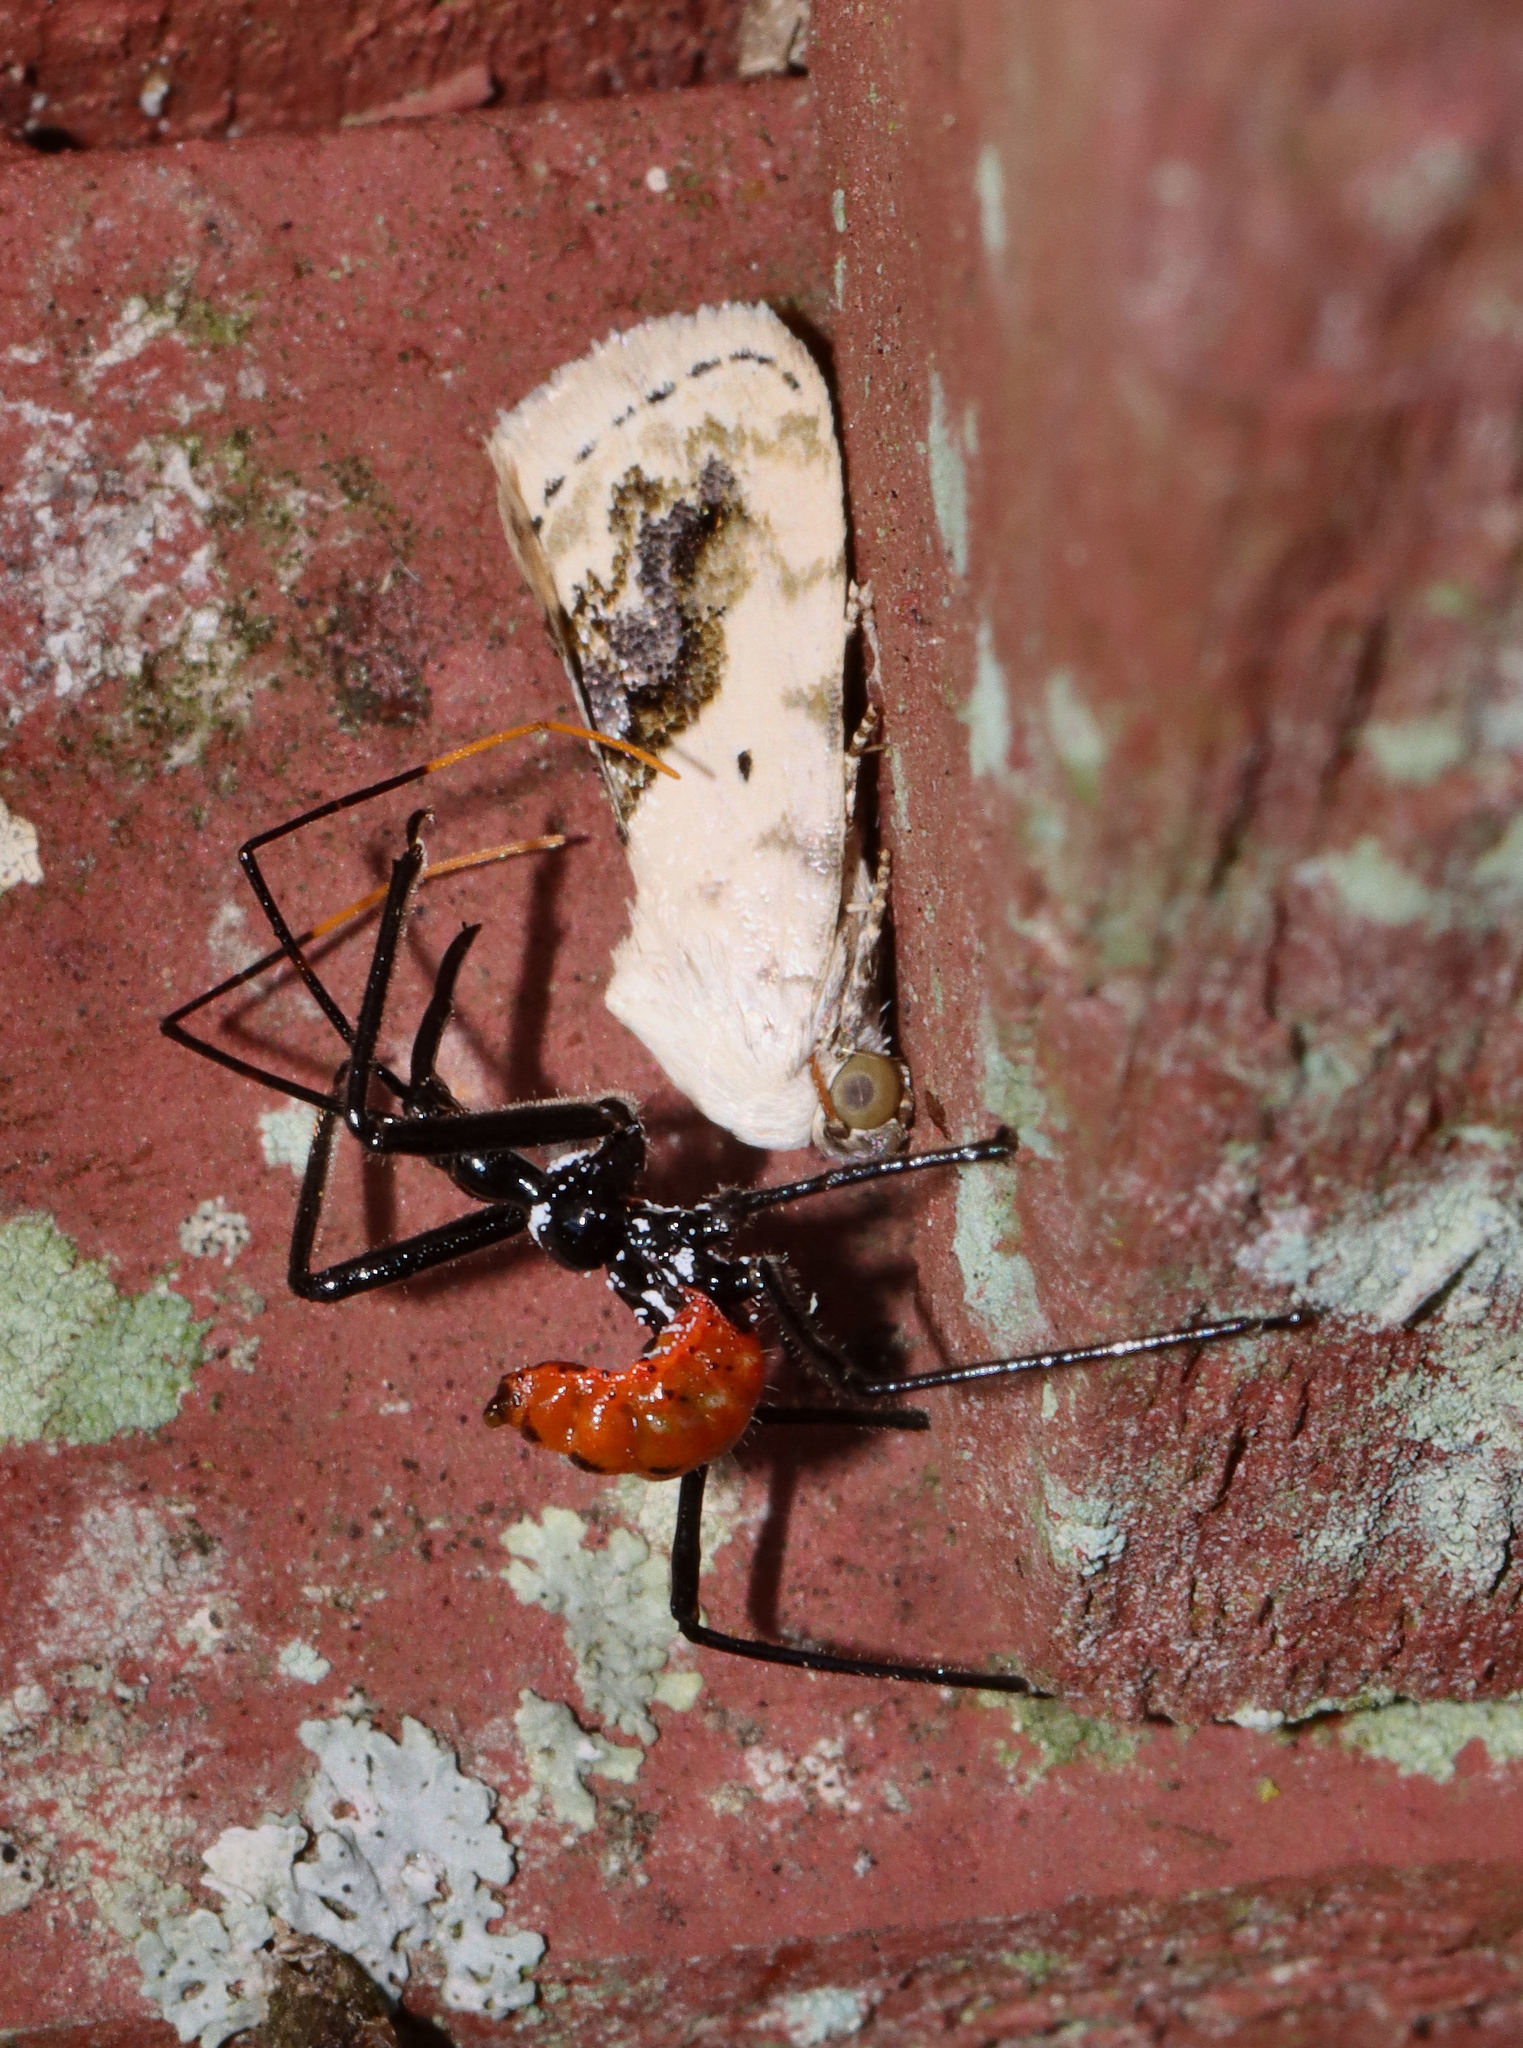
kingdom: Animalia
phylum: Arthropoda
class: Insecta
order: Hemiptera
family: Reduviidae
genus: Arilus
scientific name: Arilus cristatus
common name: North american wheel bug
